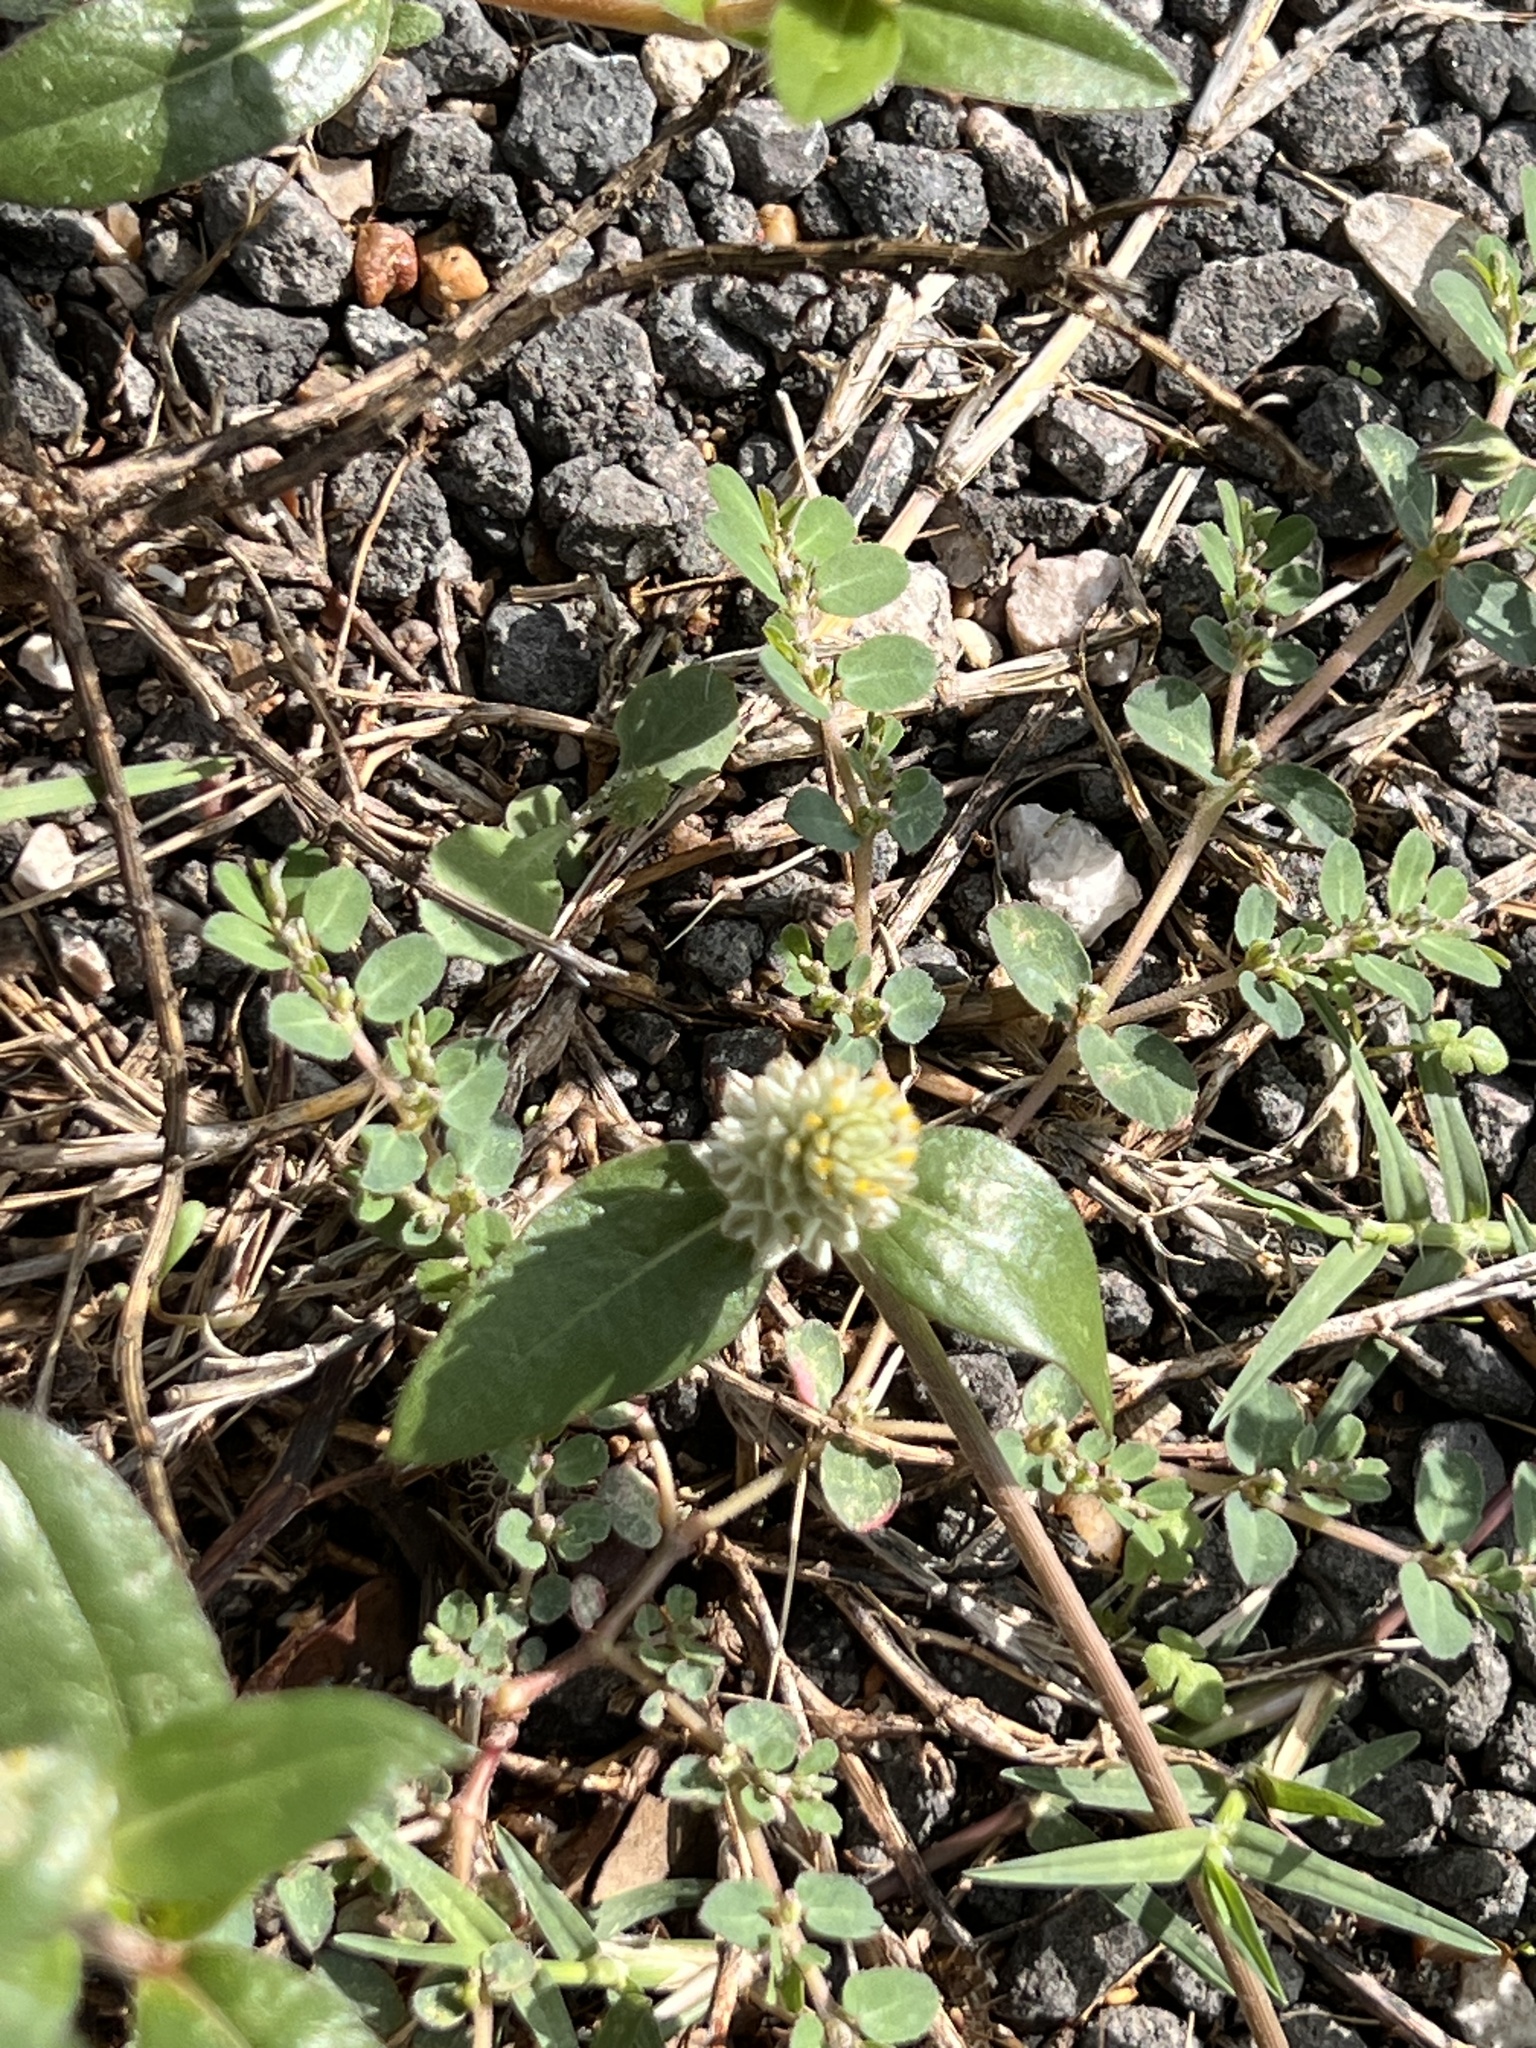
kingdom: Plantae
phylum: Tracheophyta
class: Magnoliopsida
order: Caryophyllales
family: Amaranthaceae
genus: Gomphrena
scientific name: Gomphrena serrata
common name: Arrasa con todo
